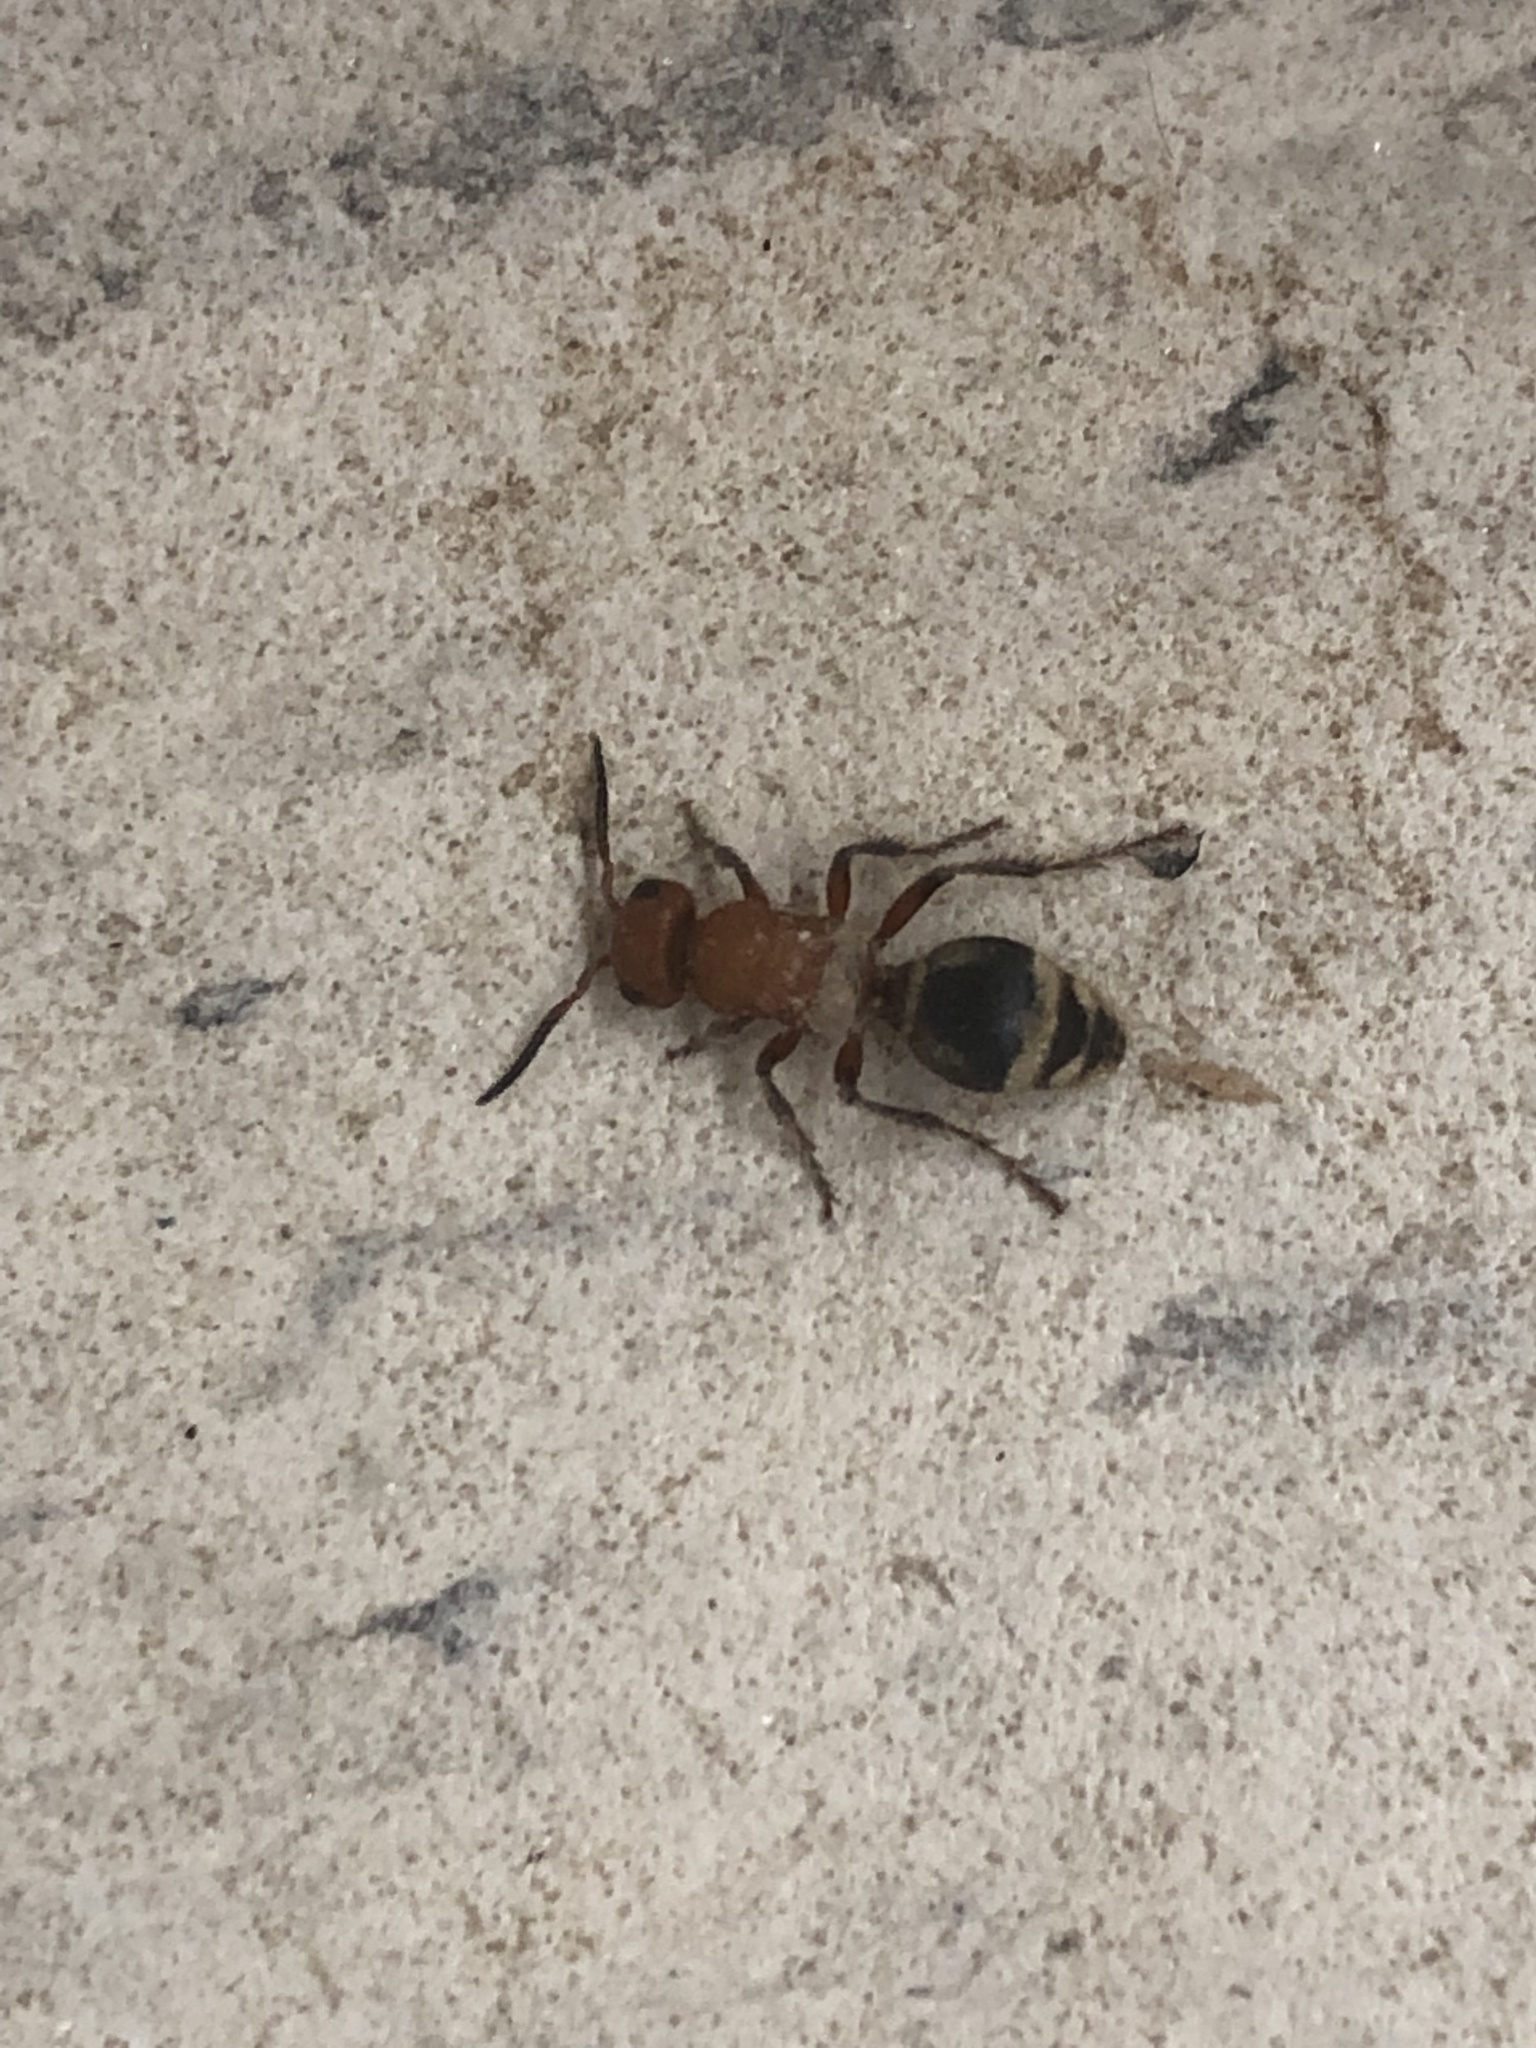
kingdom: Animalia
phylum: Arthropoda
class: Insecta
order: Hymenoptera
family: Mutillidae
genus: Timulla
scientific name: Timulla
